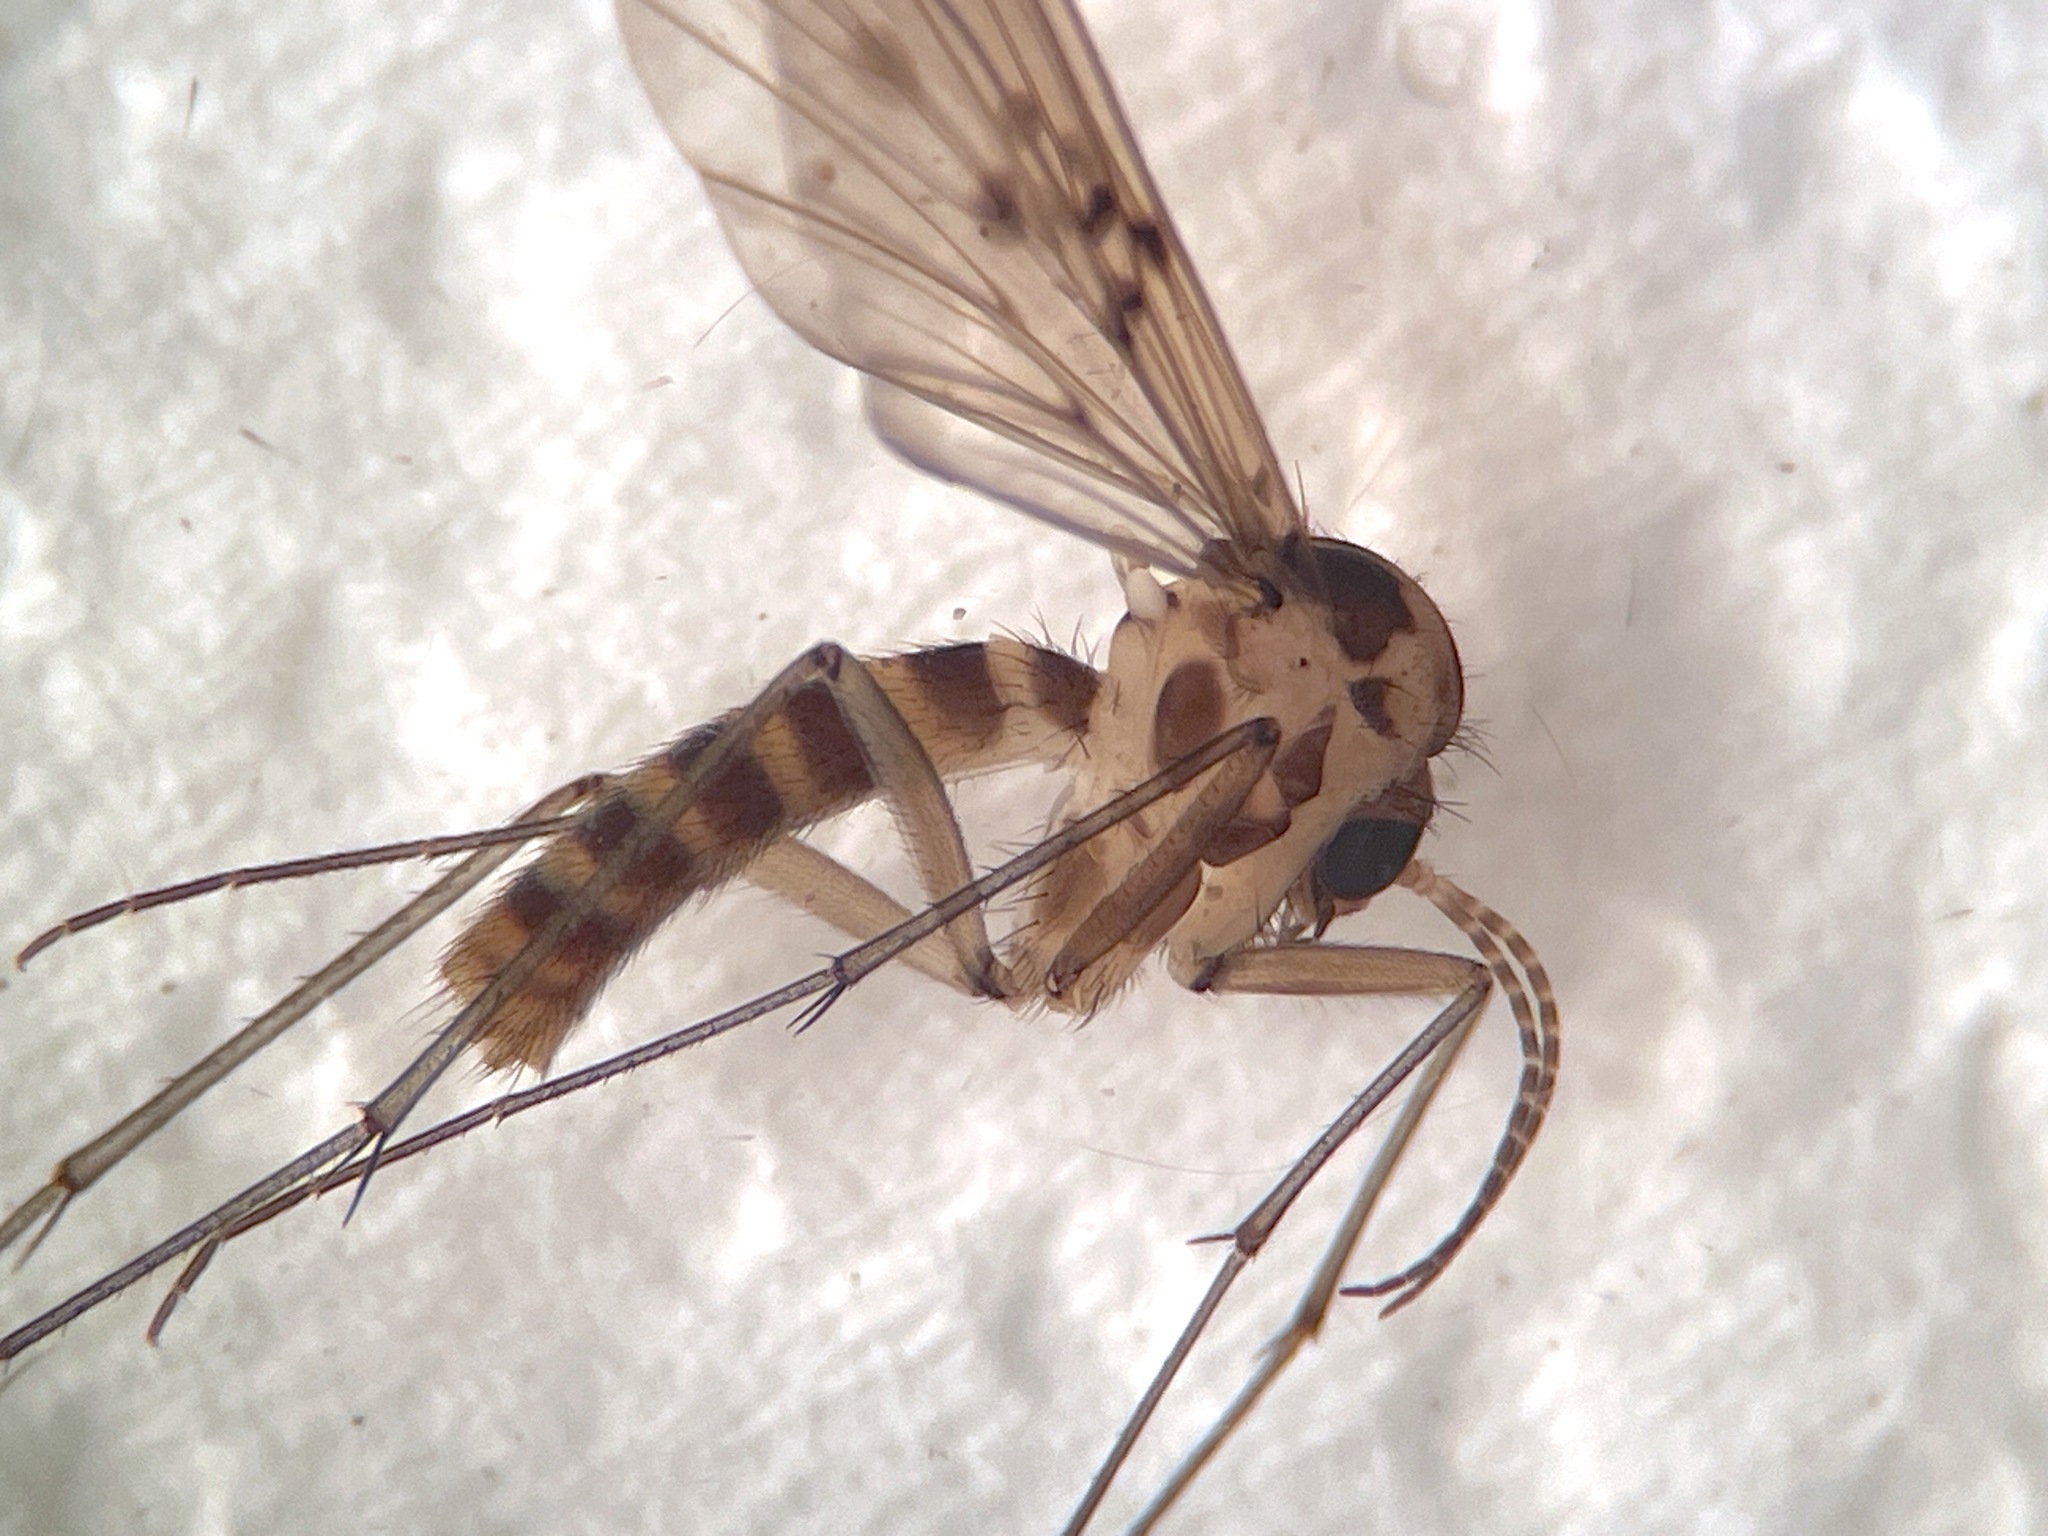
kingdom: Animalia
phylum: Arthropoda
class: Insecta
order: Diptera
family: Mycetophilidae
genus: Mycomya
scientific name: Mycomya quadrimaculata
